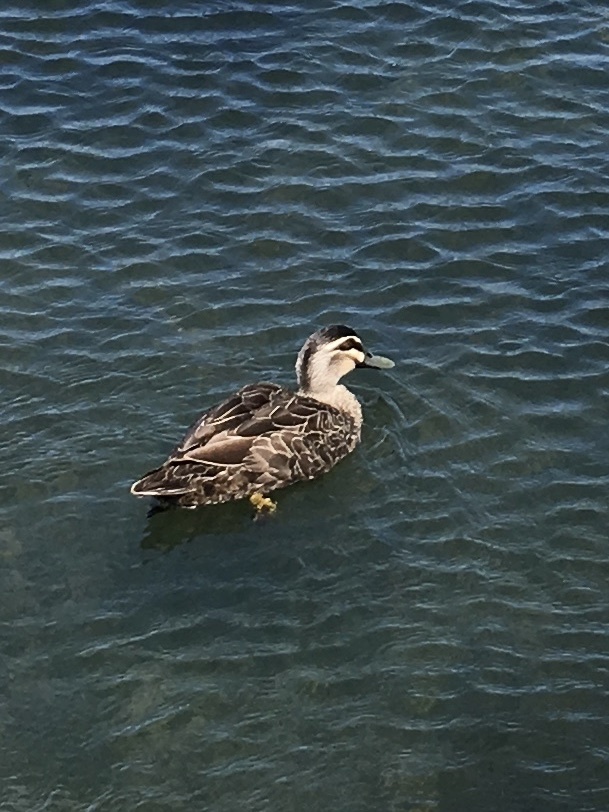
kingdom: Animalia
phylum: Chordata
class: Aves
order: Anseriformes
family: Anatidae
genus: Anas
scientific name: Anas superciliosa
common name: Pacific black duck
